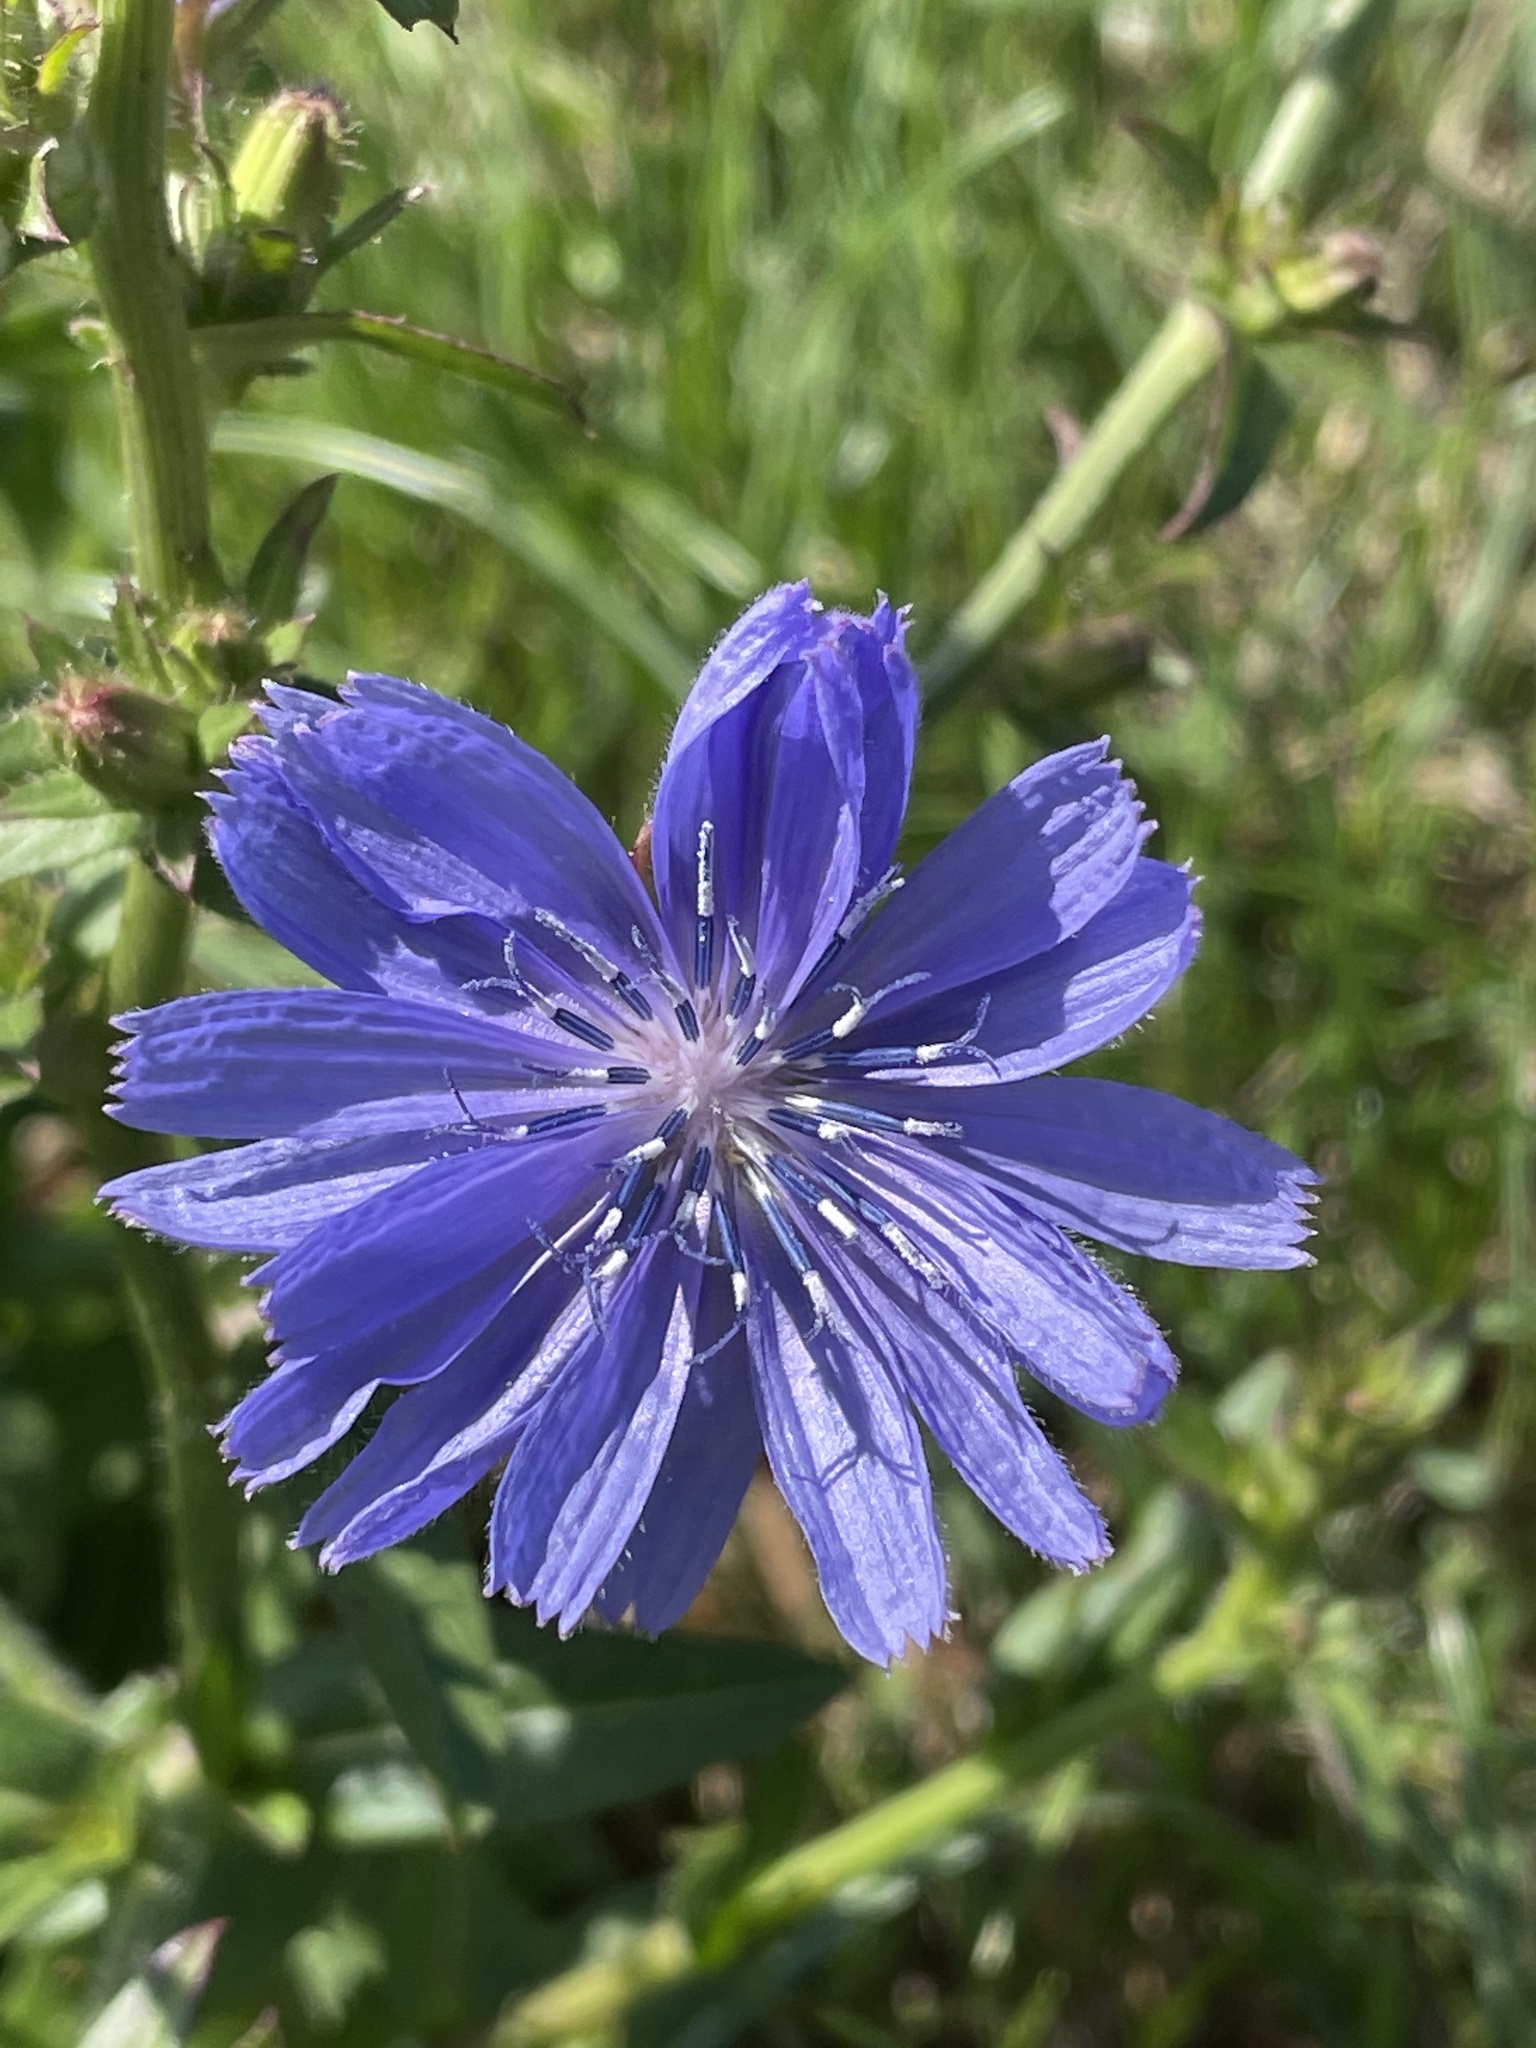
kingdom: Plantae
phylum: Tracheophyta
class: Magnoliopsida
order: Asterales
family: Asteraceae
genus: Cichorium
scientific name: Cichorium intybus
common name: Chicory
